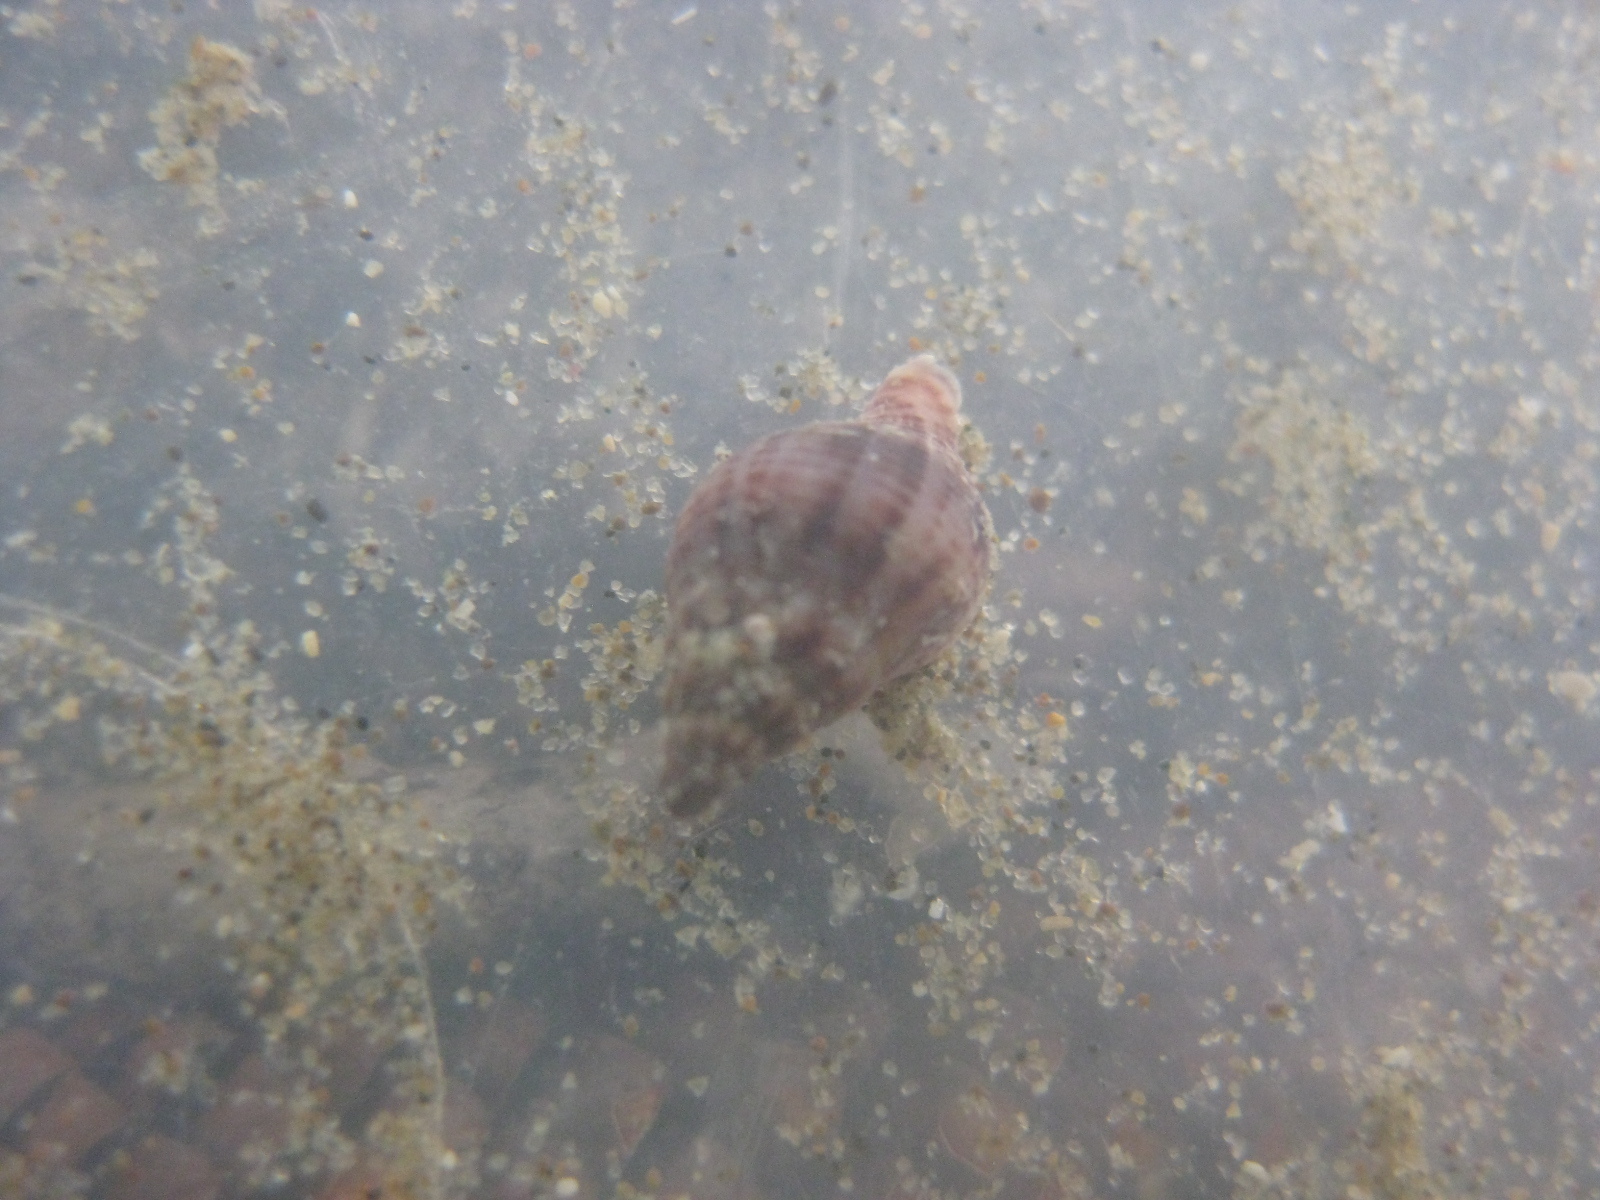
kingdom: Animalia
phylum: Mollusca
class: Gastropoda
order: Neogastropoda
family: Tudiclidae
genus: Buccinulum
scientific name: Buccinulum vittatum
